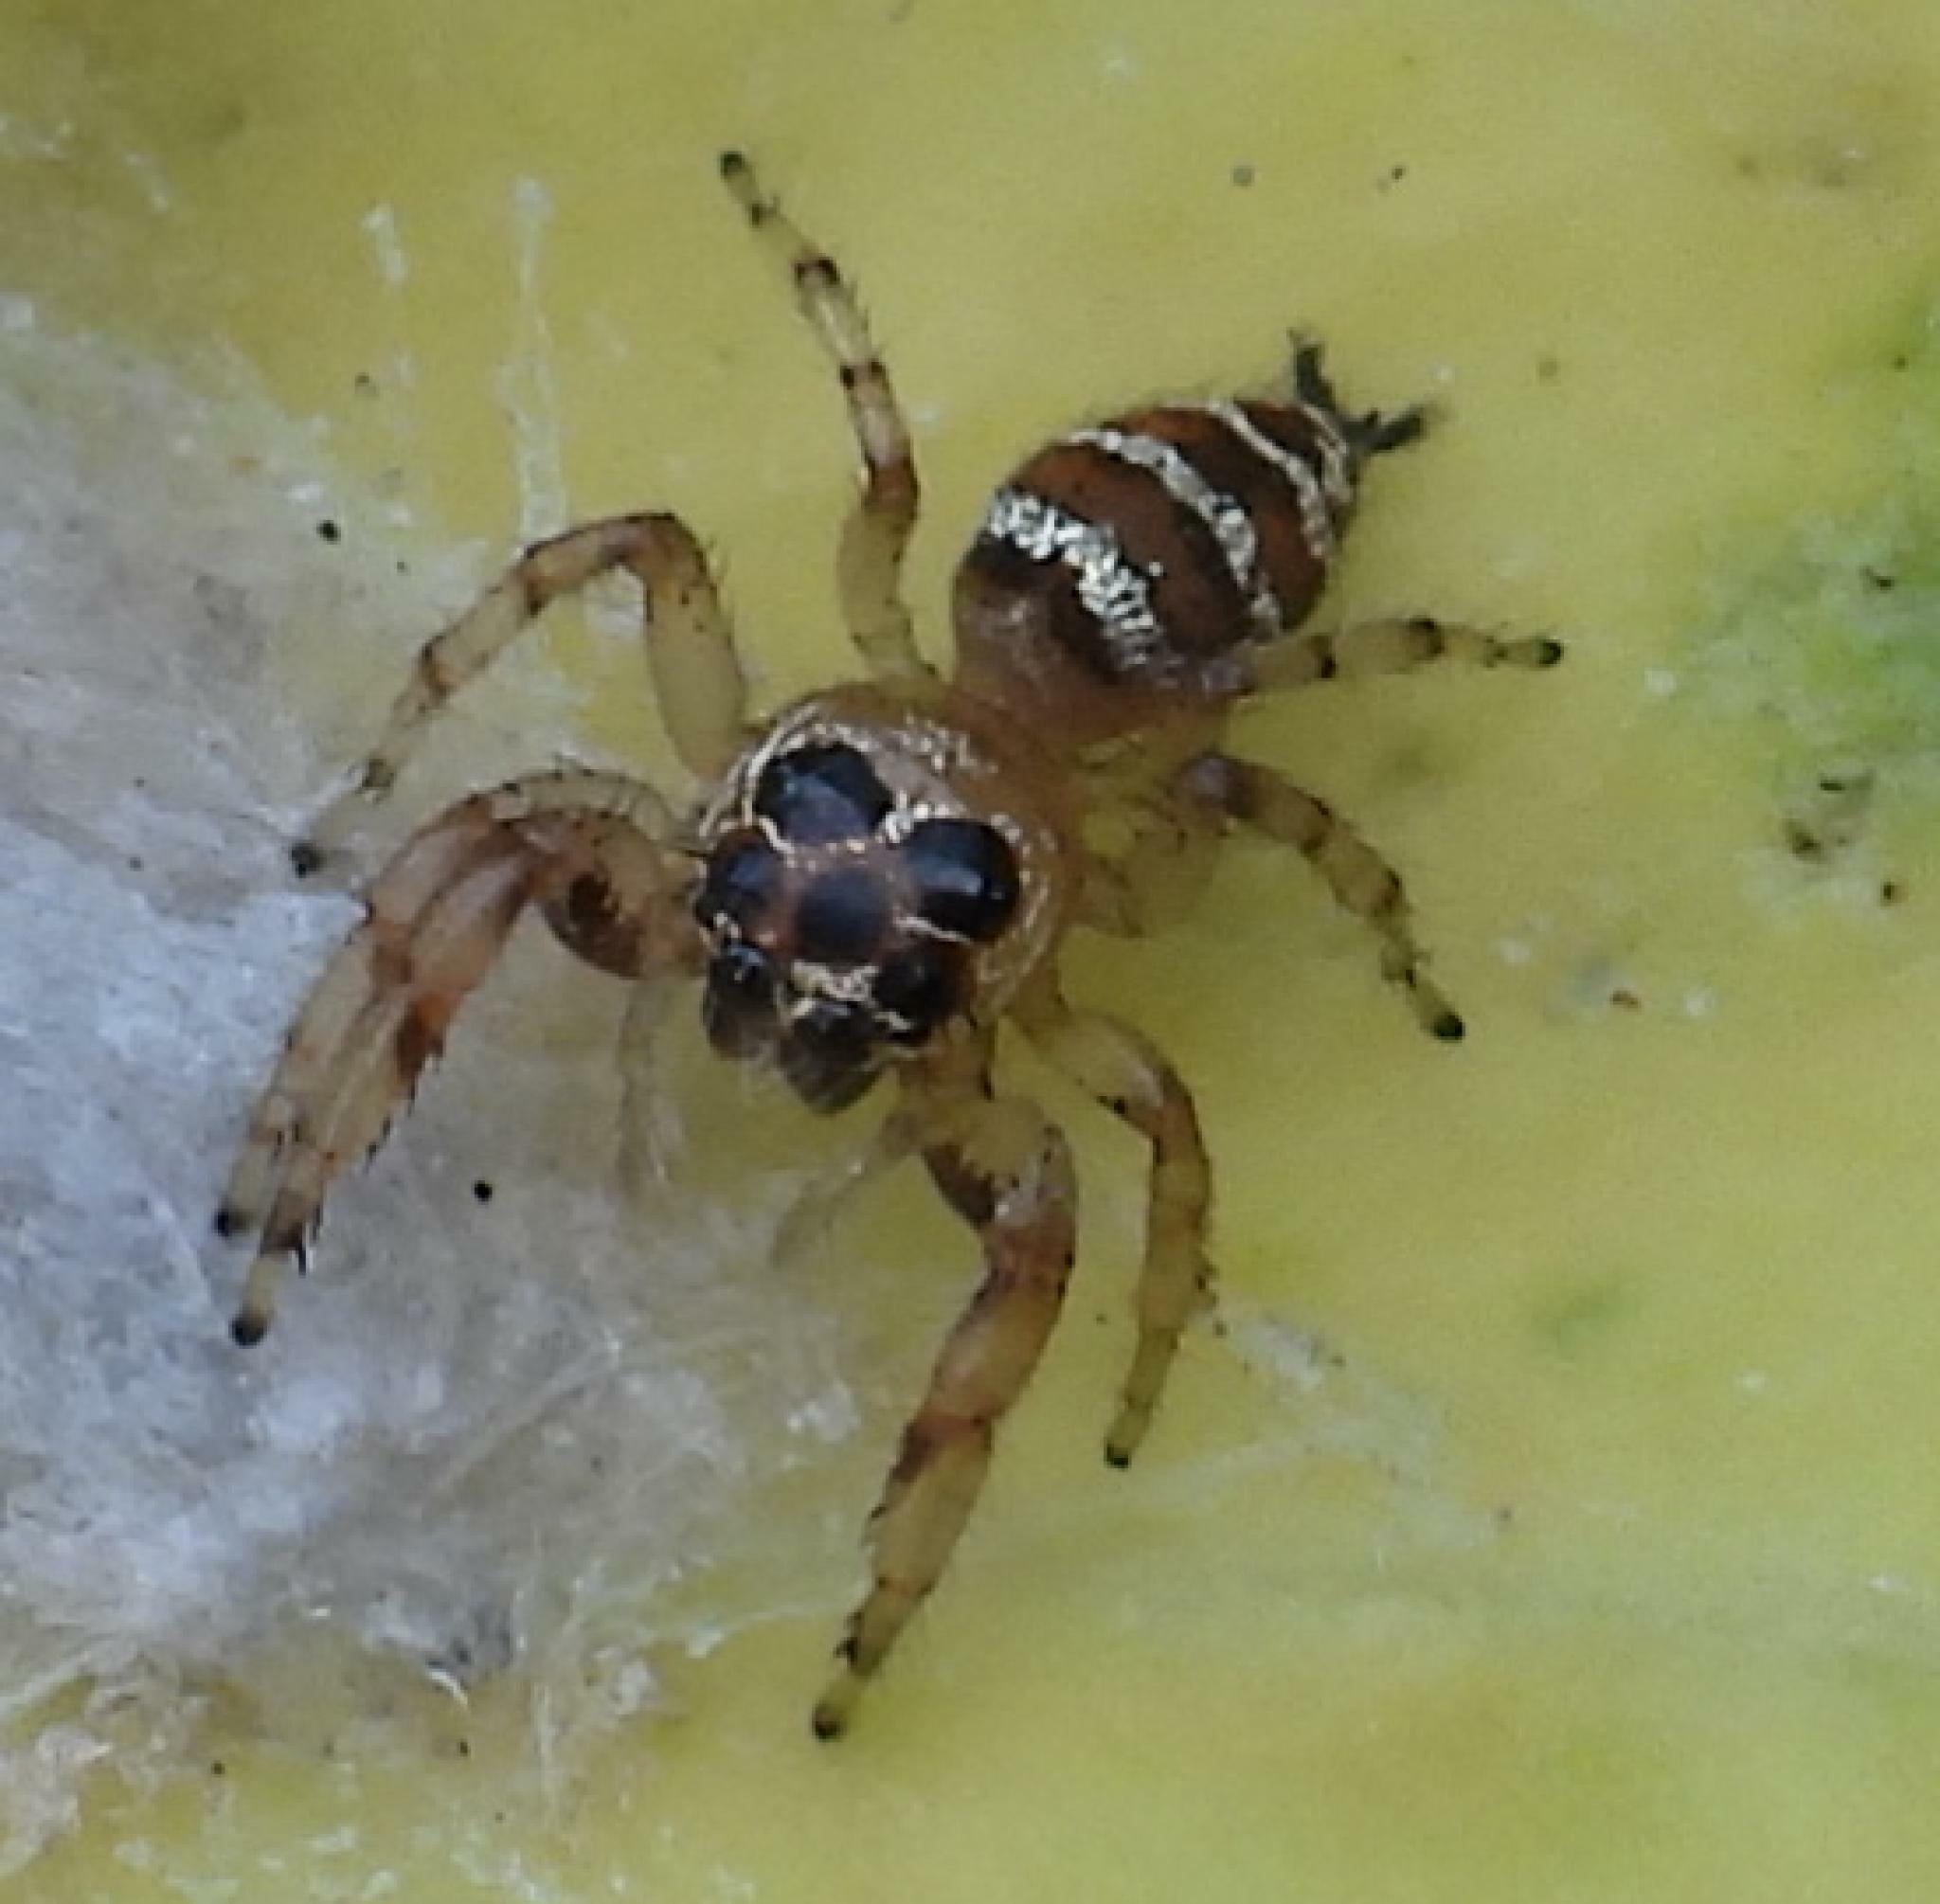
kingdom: Animalia
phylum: Arthropoda
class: Arachnida
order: Araneae
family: Salticidae
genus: Thyene
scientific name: Thyene natalii
